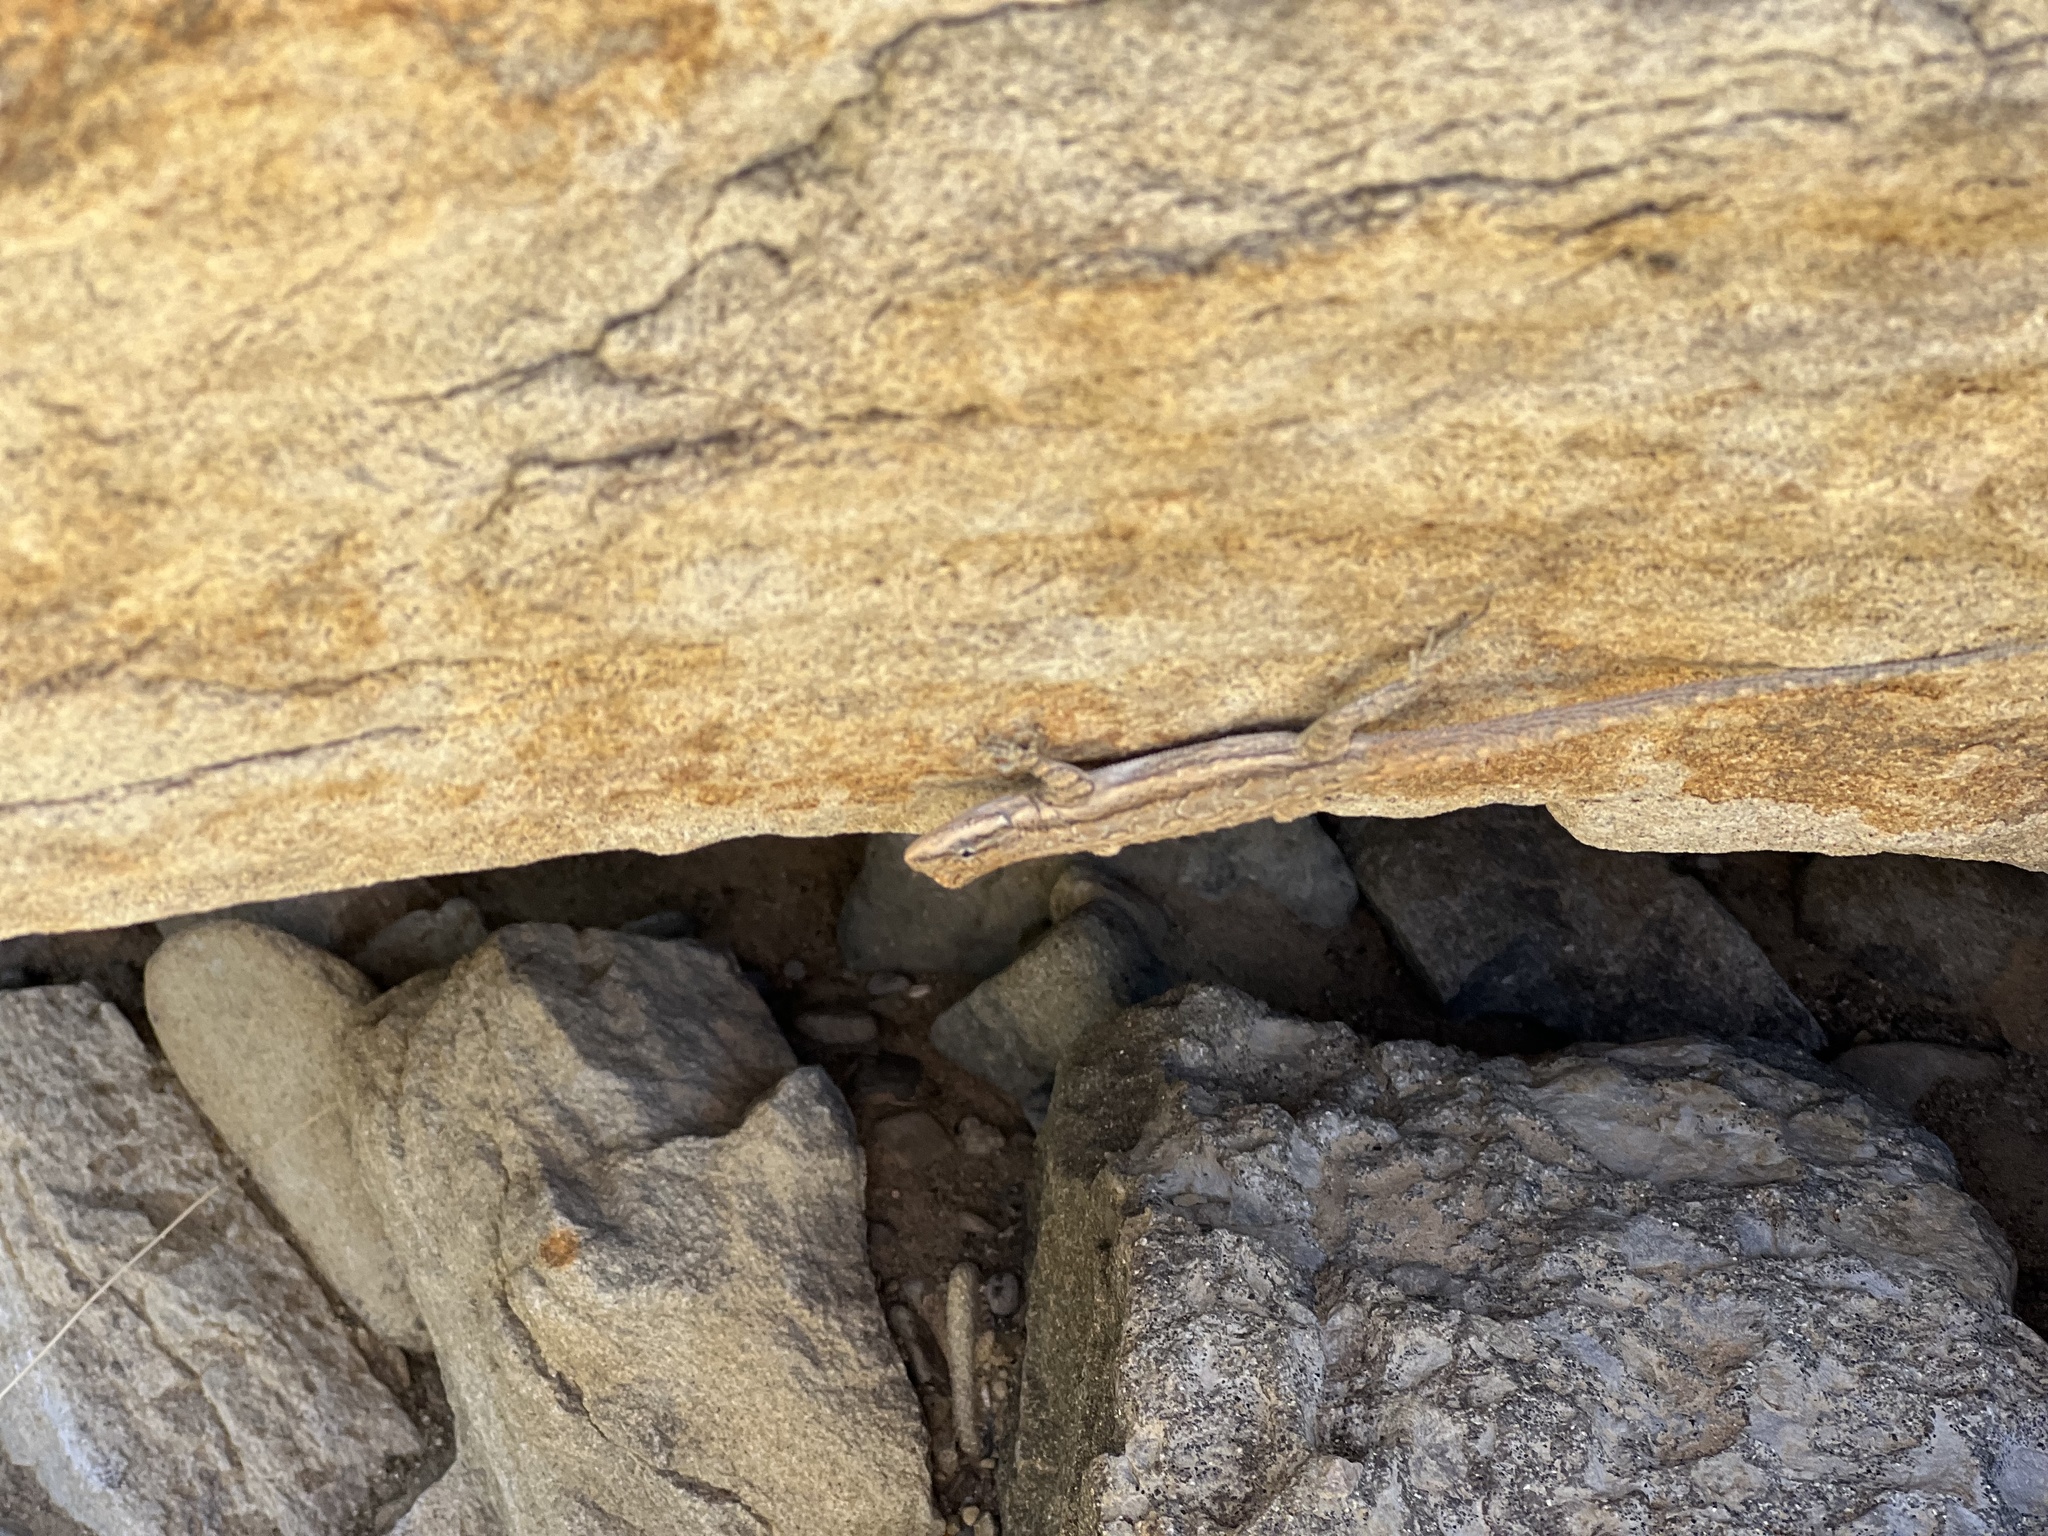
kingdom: Animalia
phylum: Chordata
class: Squamata
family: Phrynosomatidae
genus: Urosaurus
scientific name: Urosaurus ornatus
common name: Ornate tree lizard
